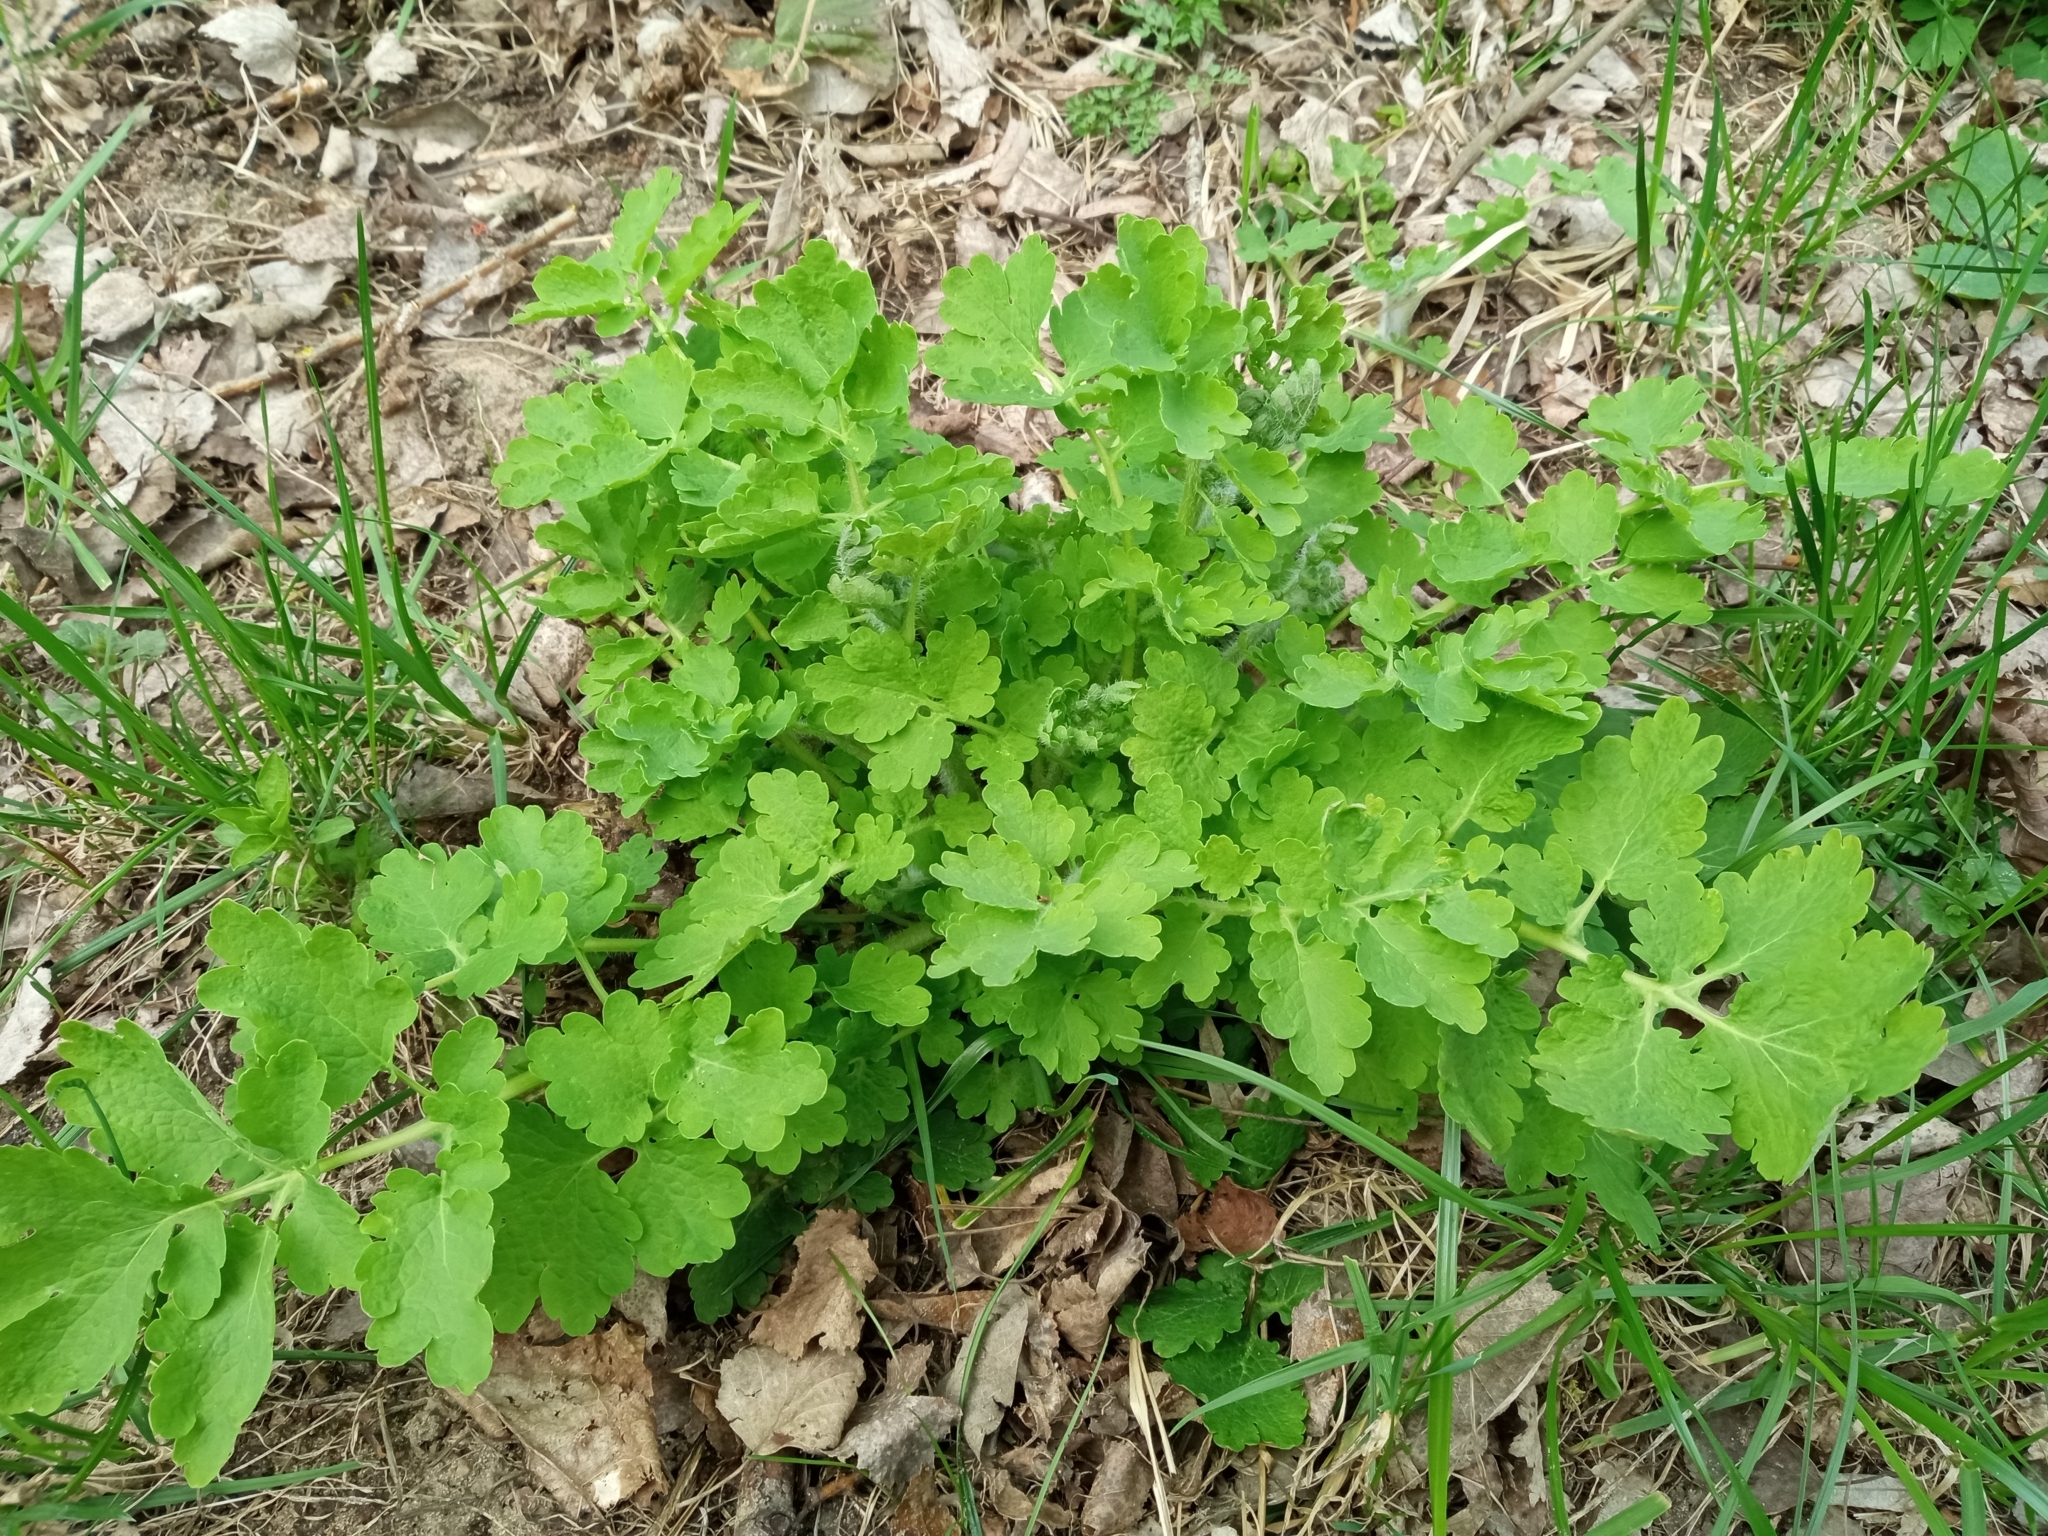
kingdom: Plantae
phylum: Tracheophyta
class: Magnoliopsida
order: Ranunculales
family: Papaveraceae
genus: Chelidonium
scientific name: Chelidonium majus
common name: Greater celandine
